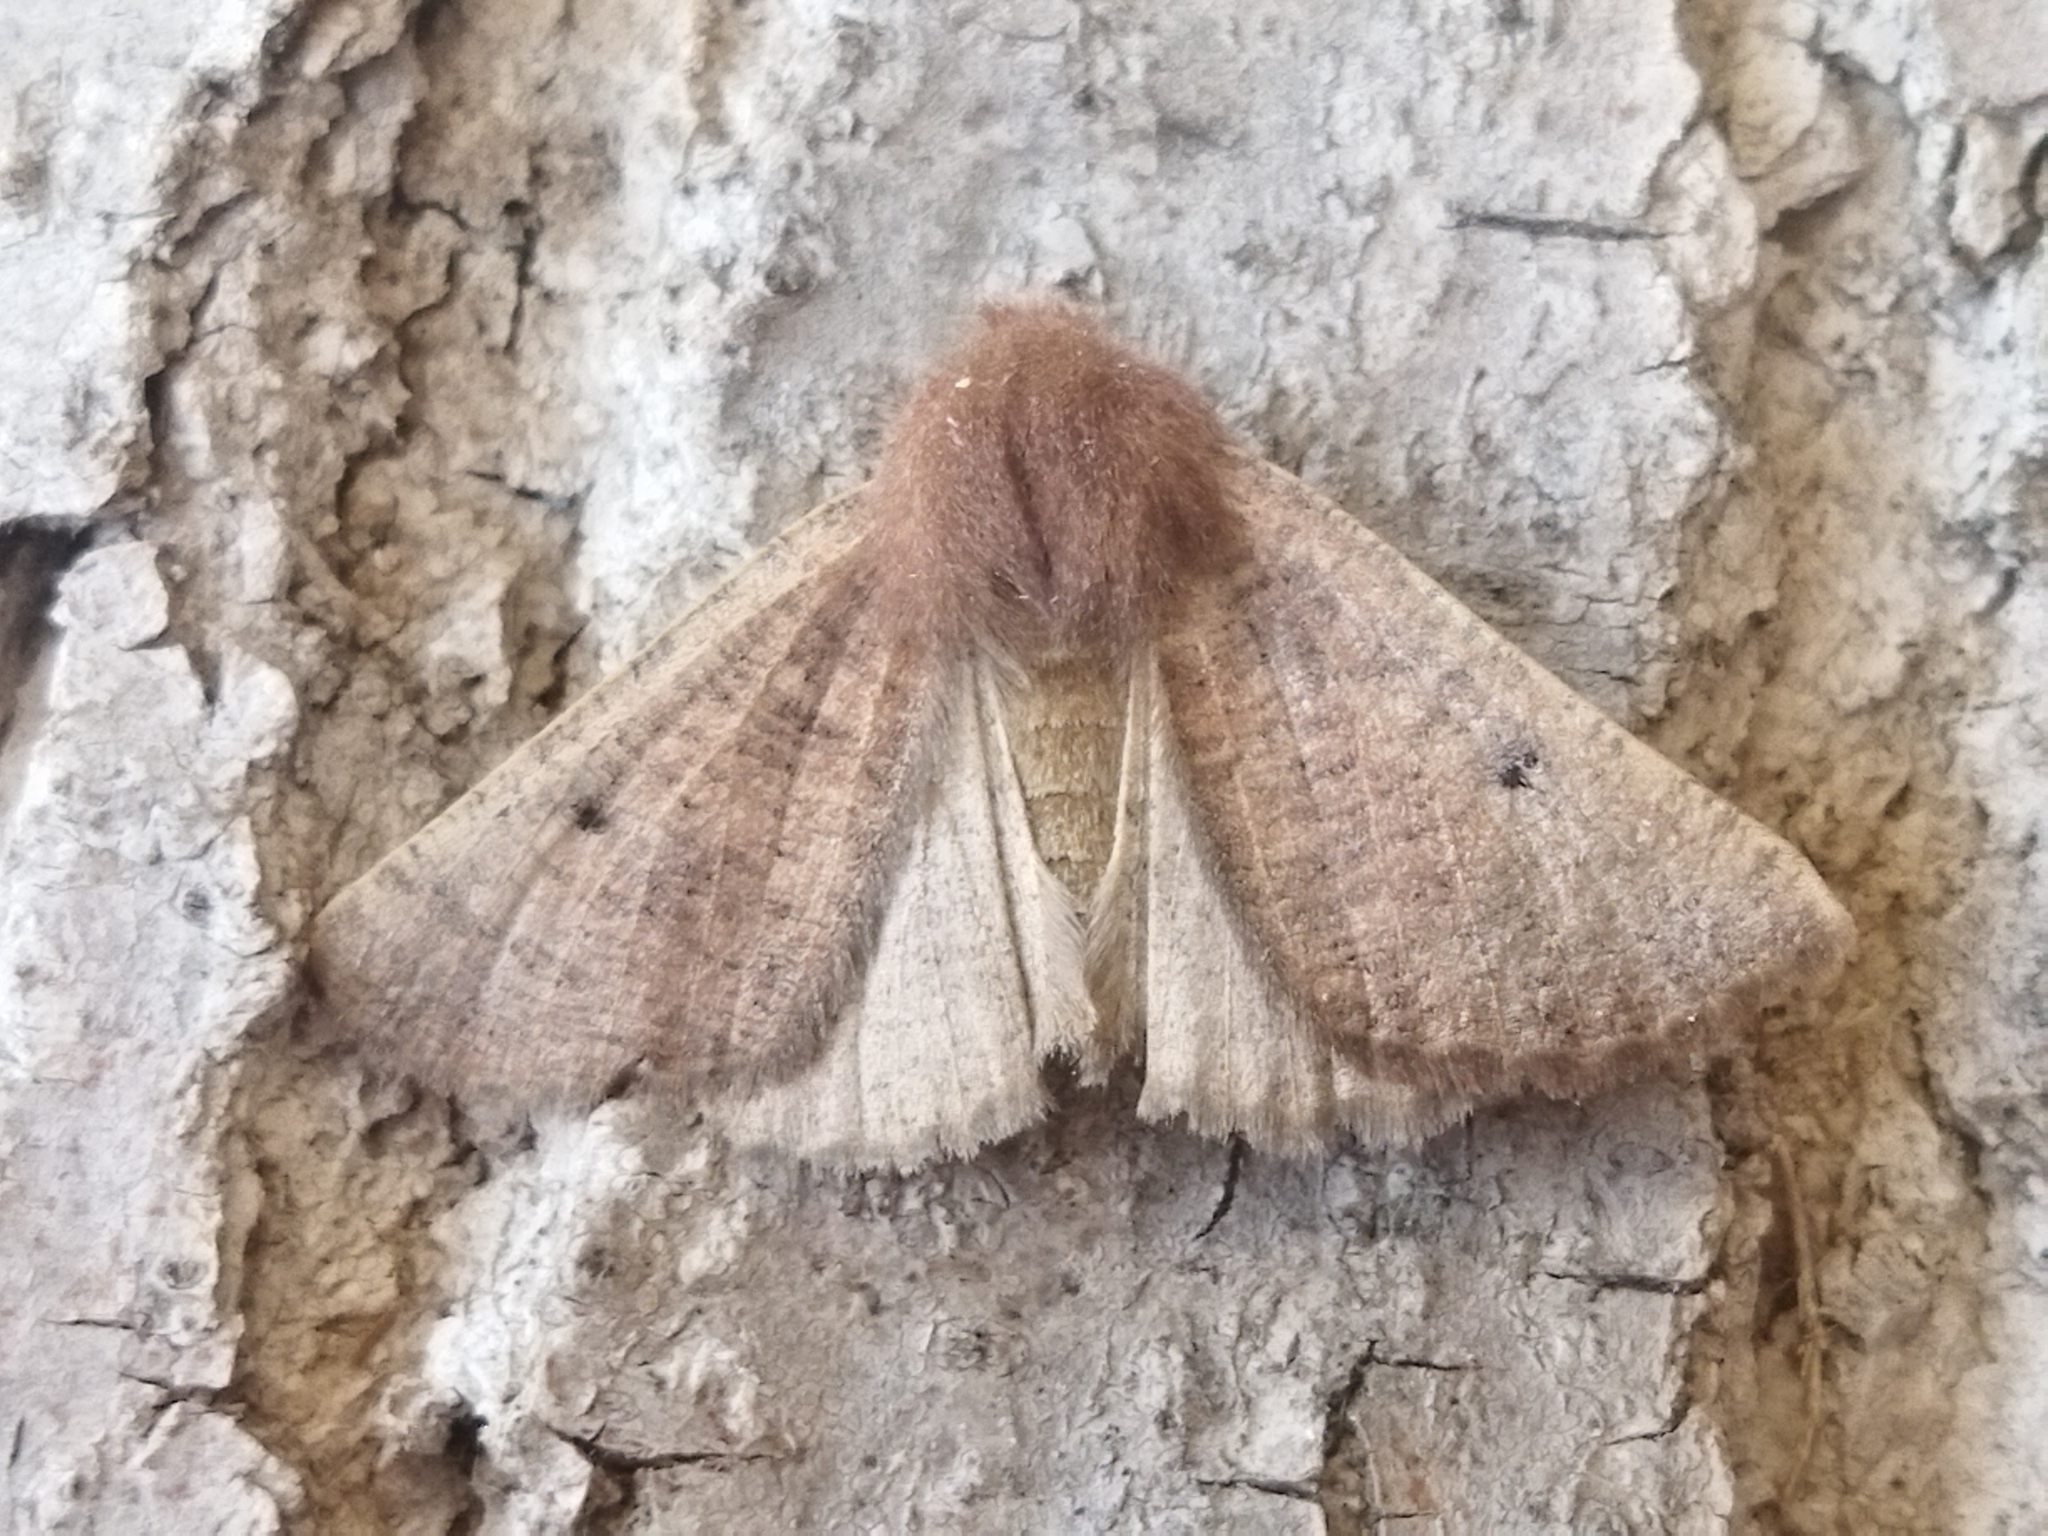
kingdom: Animalia
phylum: Arthropoda
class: Insecta
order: Lepidoptera
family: Geometridae
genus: Dasycorsa
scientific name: Dasycorsa modesta
